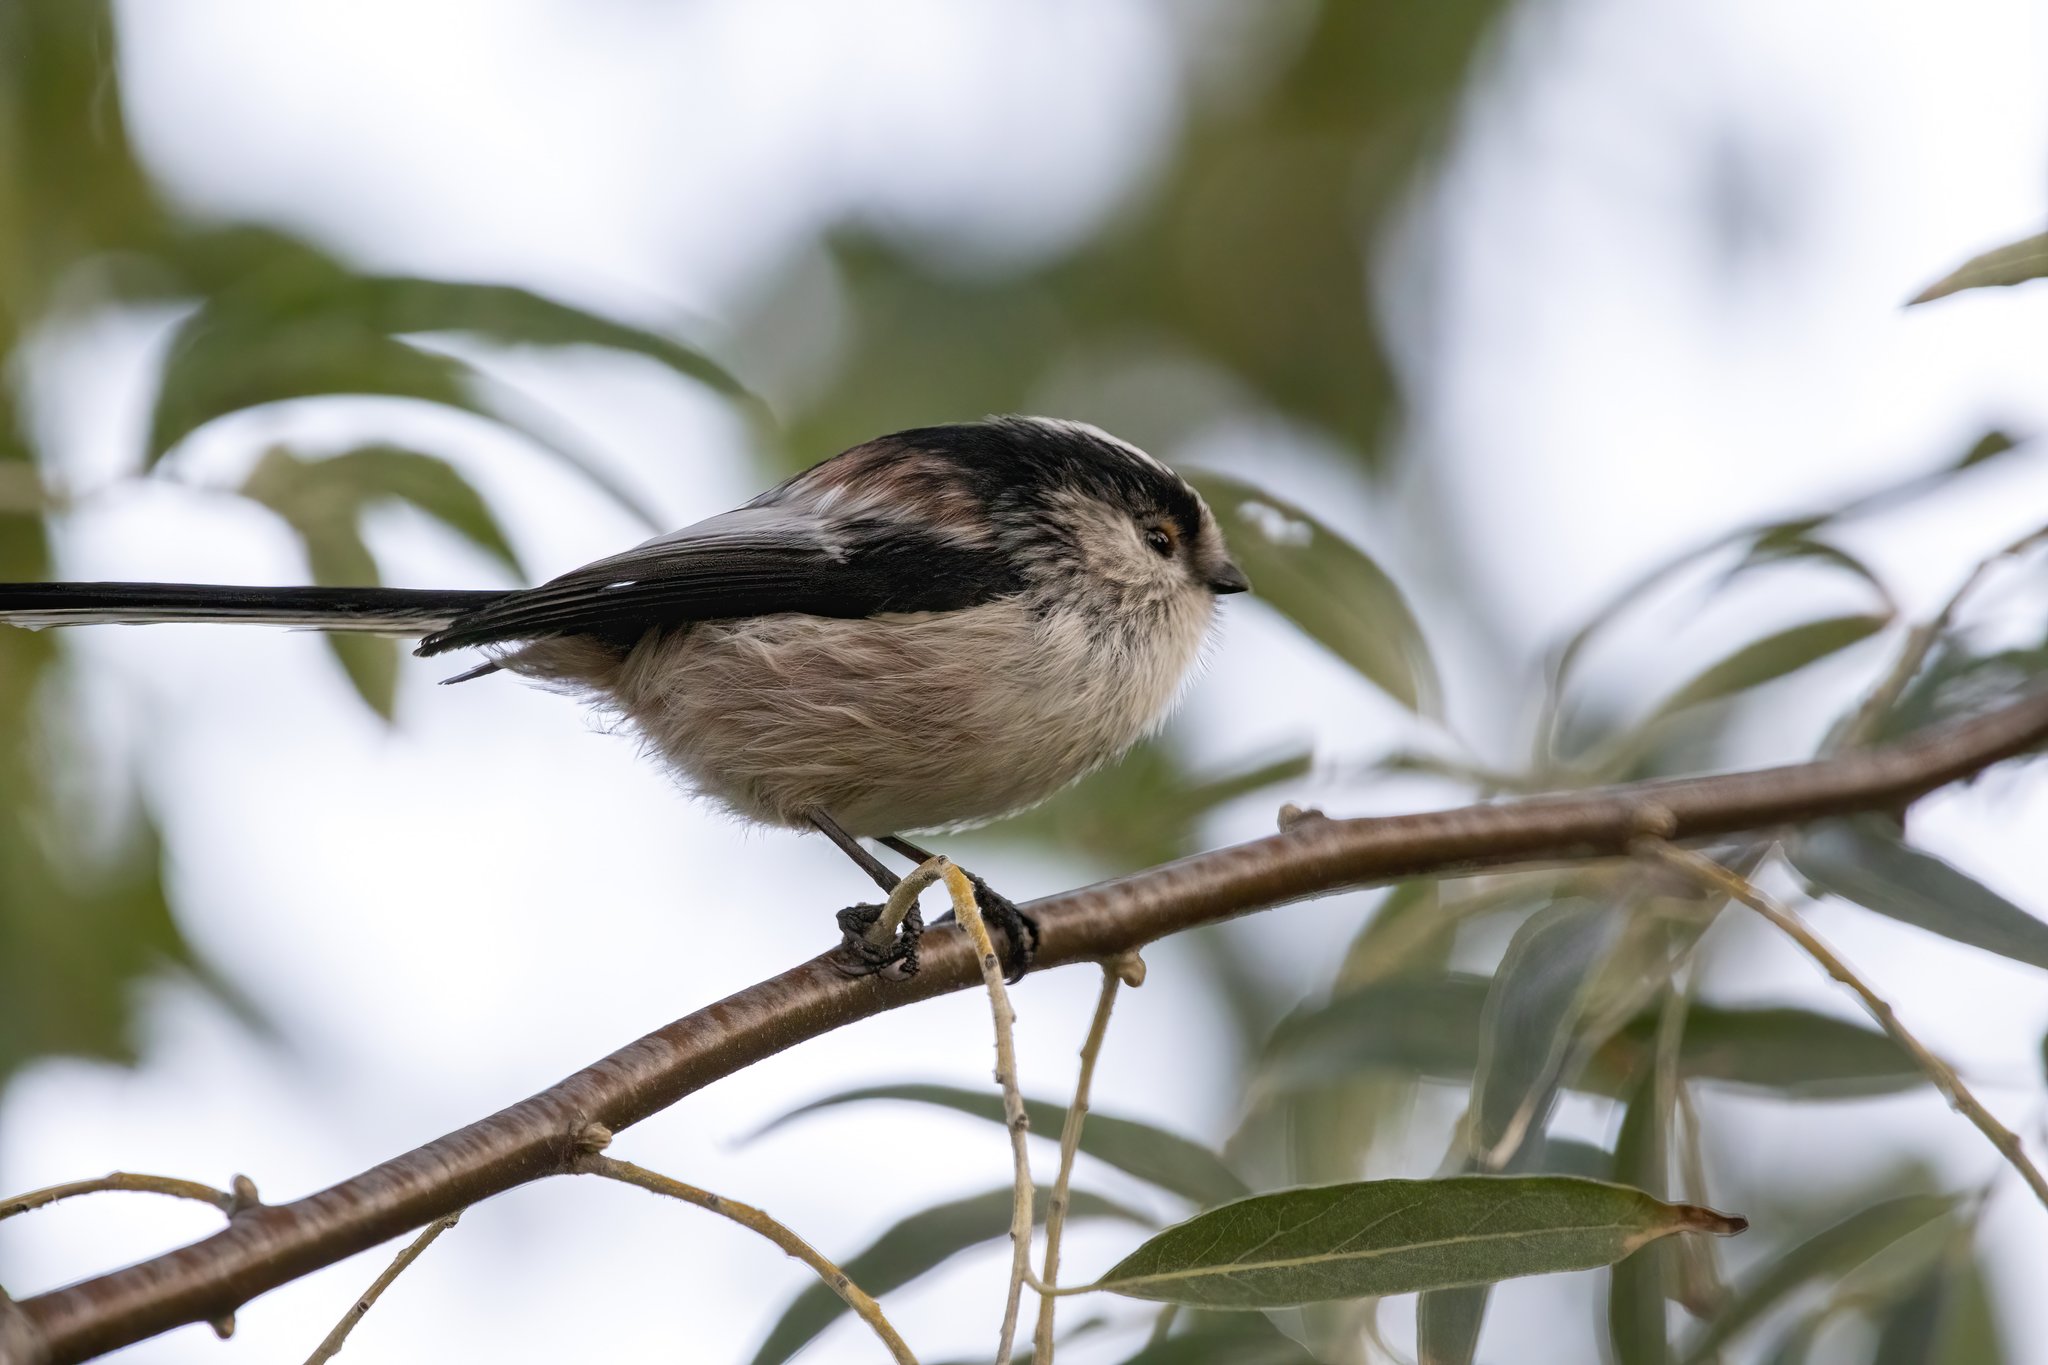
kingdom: Animalia
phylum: Chordata
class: Aves
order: Passeriformes
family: Aegithalidae
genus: Aegithalos
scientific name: Aegithalos caudatus
